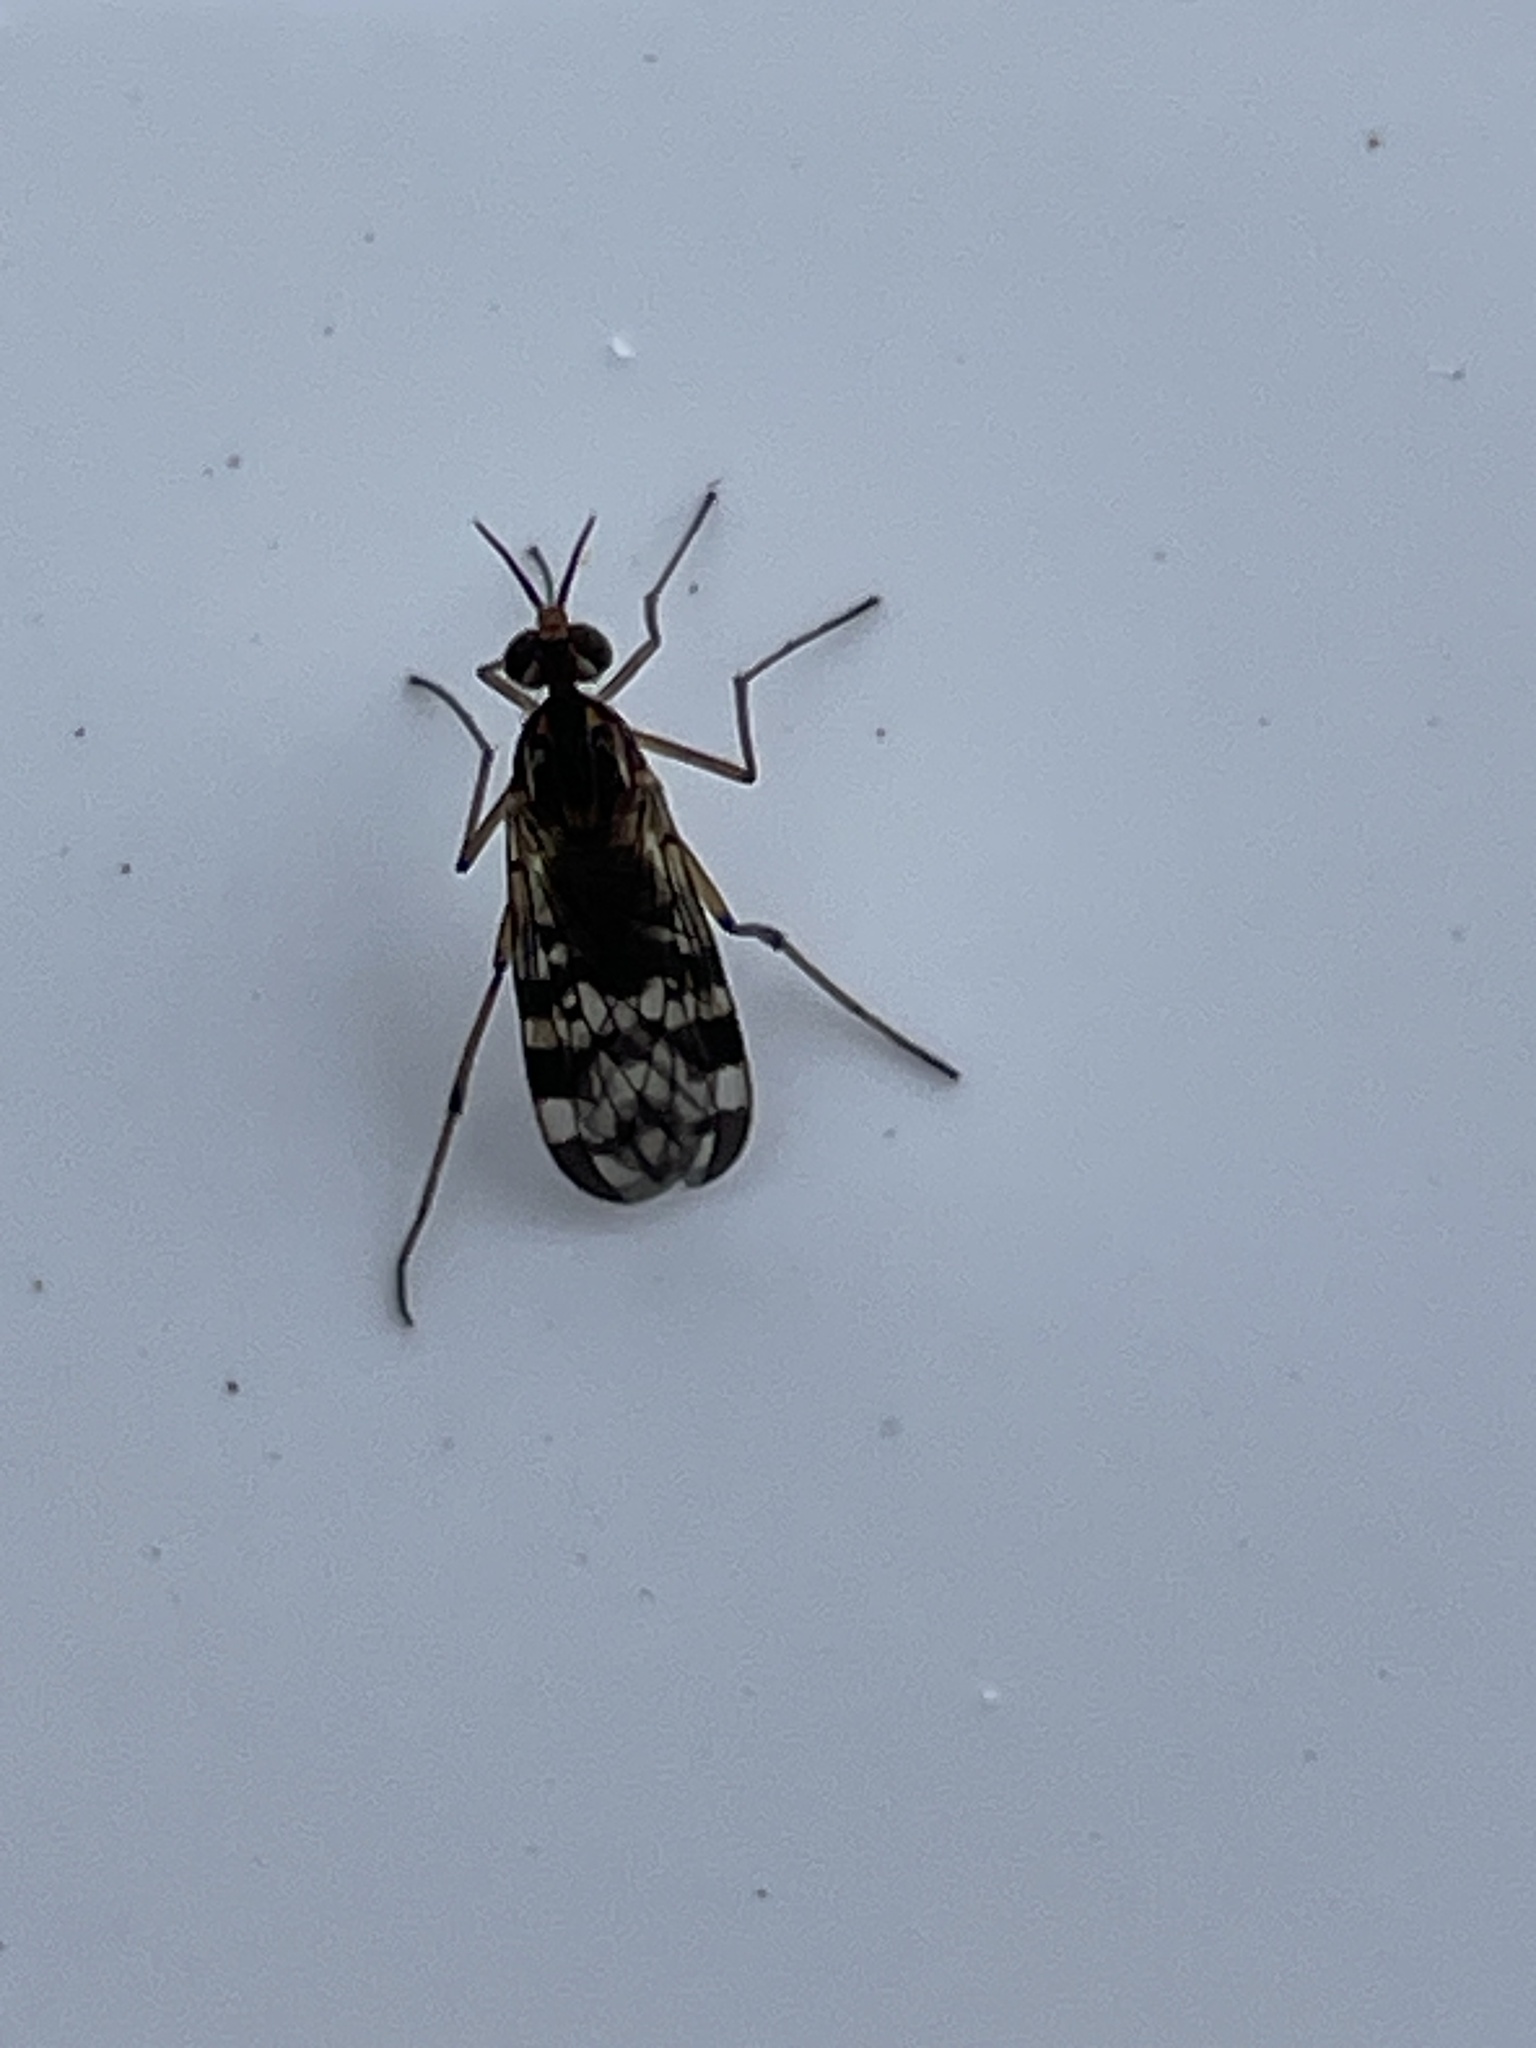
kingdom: Animalia
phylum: Arthropoda
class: Insecta
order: Diptera
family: Anisopodidae
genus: Sylvicola
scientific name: Sylvicola dubius
